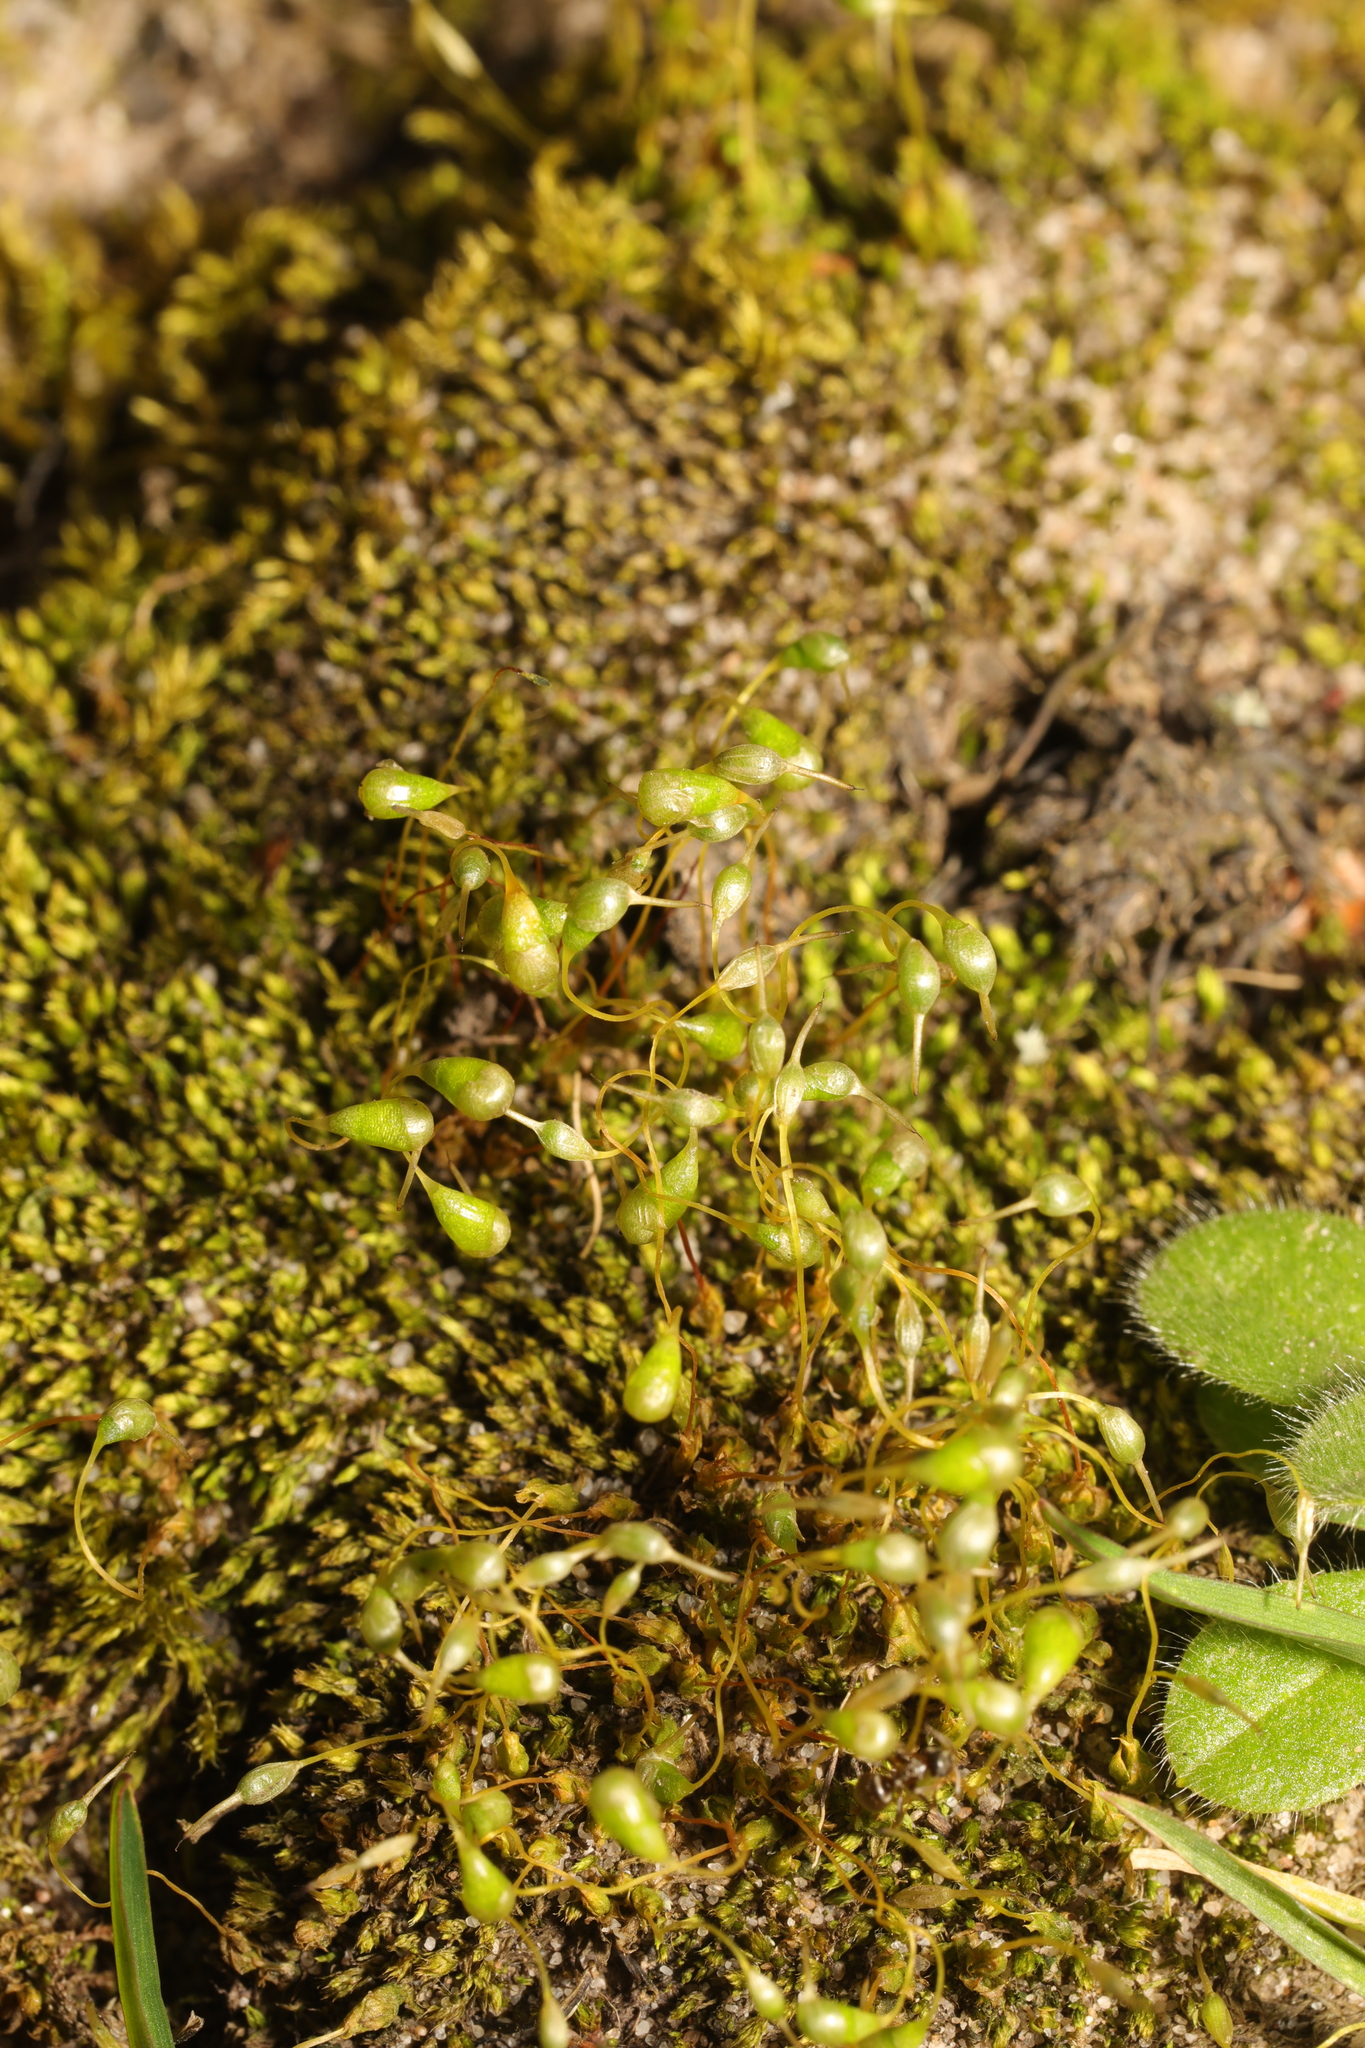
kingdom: Plantae
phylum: Bryophyta
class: Bryopsida
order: Funariales
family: Funariaceae
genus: Funaria
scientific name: Funaria hygrometrica
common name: Common cord moss
